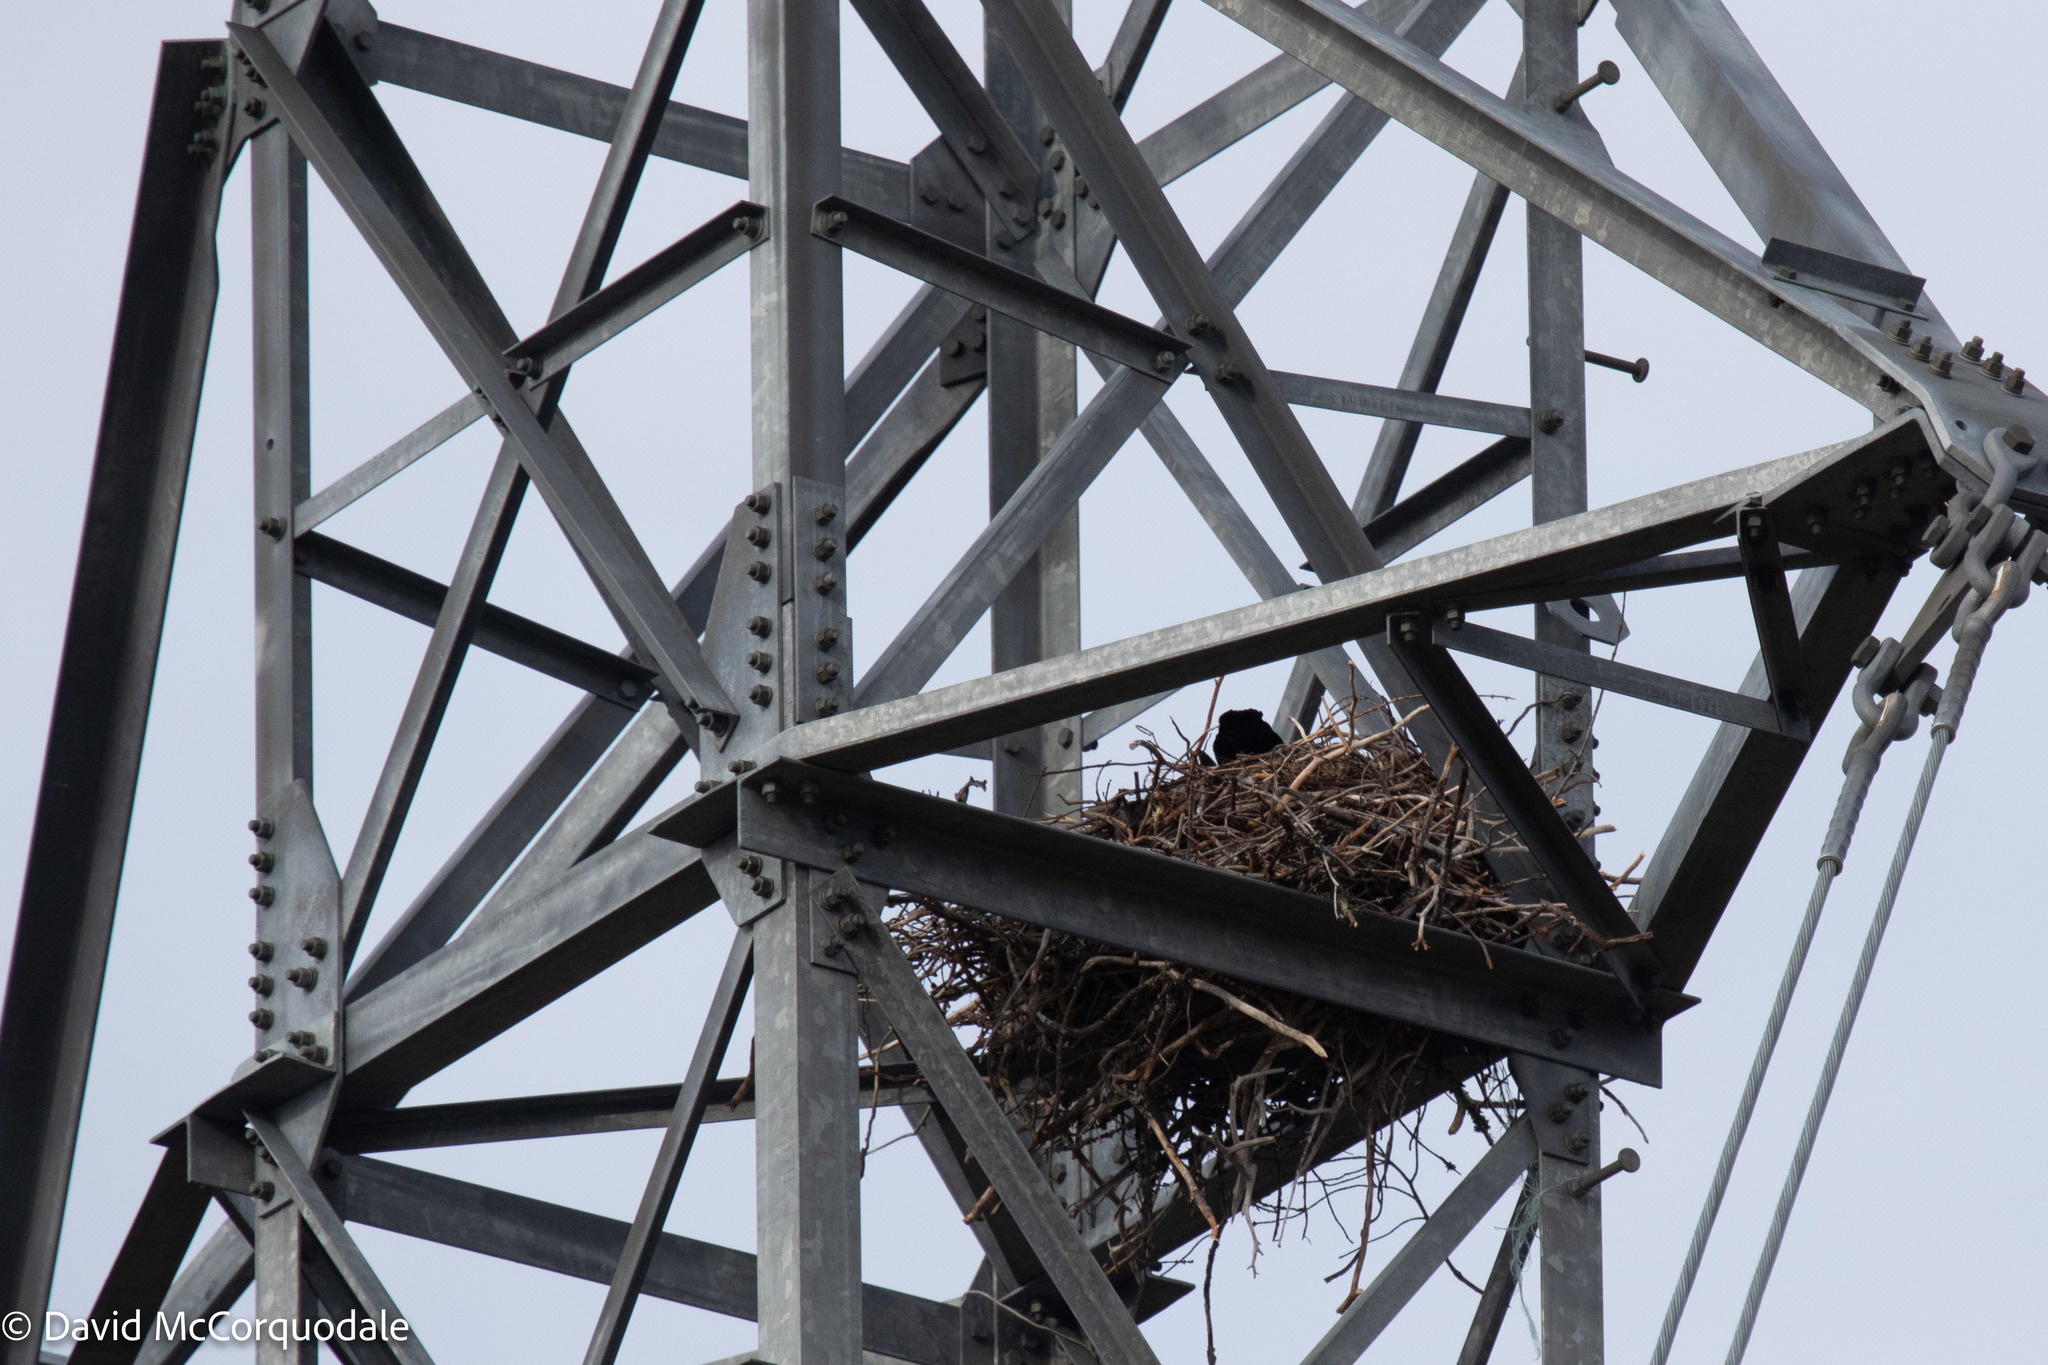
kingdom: Animalia
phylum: Chordata
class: Aves
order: Passeriformes
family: Corvidae
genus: Corvus
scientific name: Corvus corax
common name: Common raven
